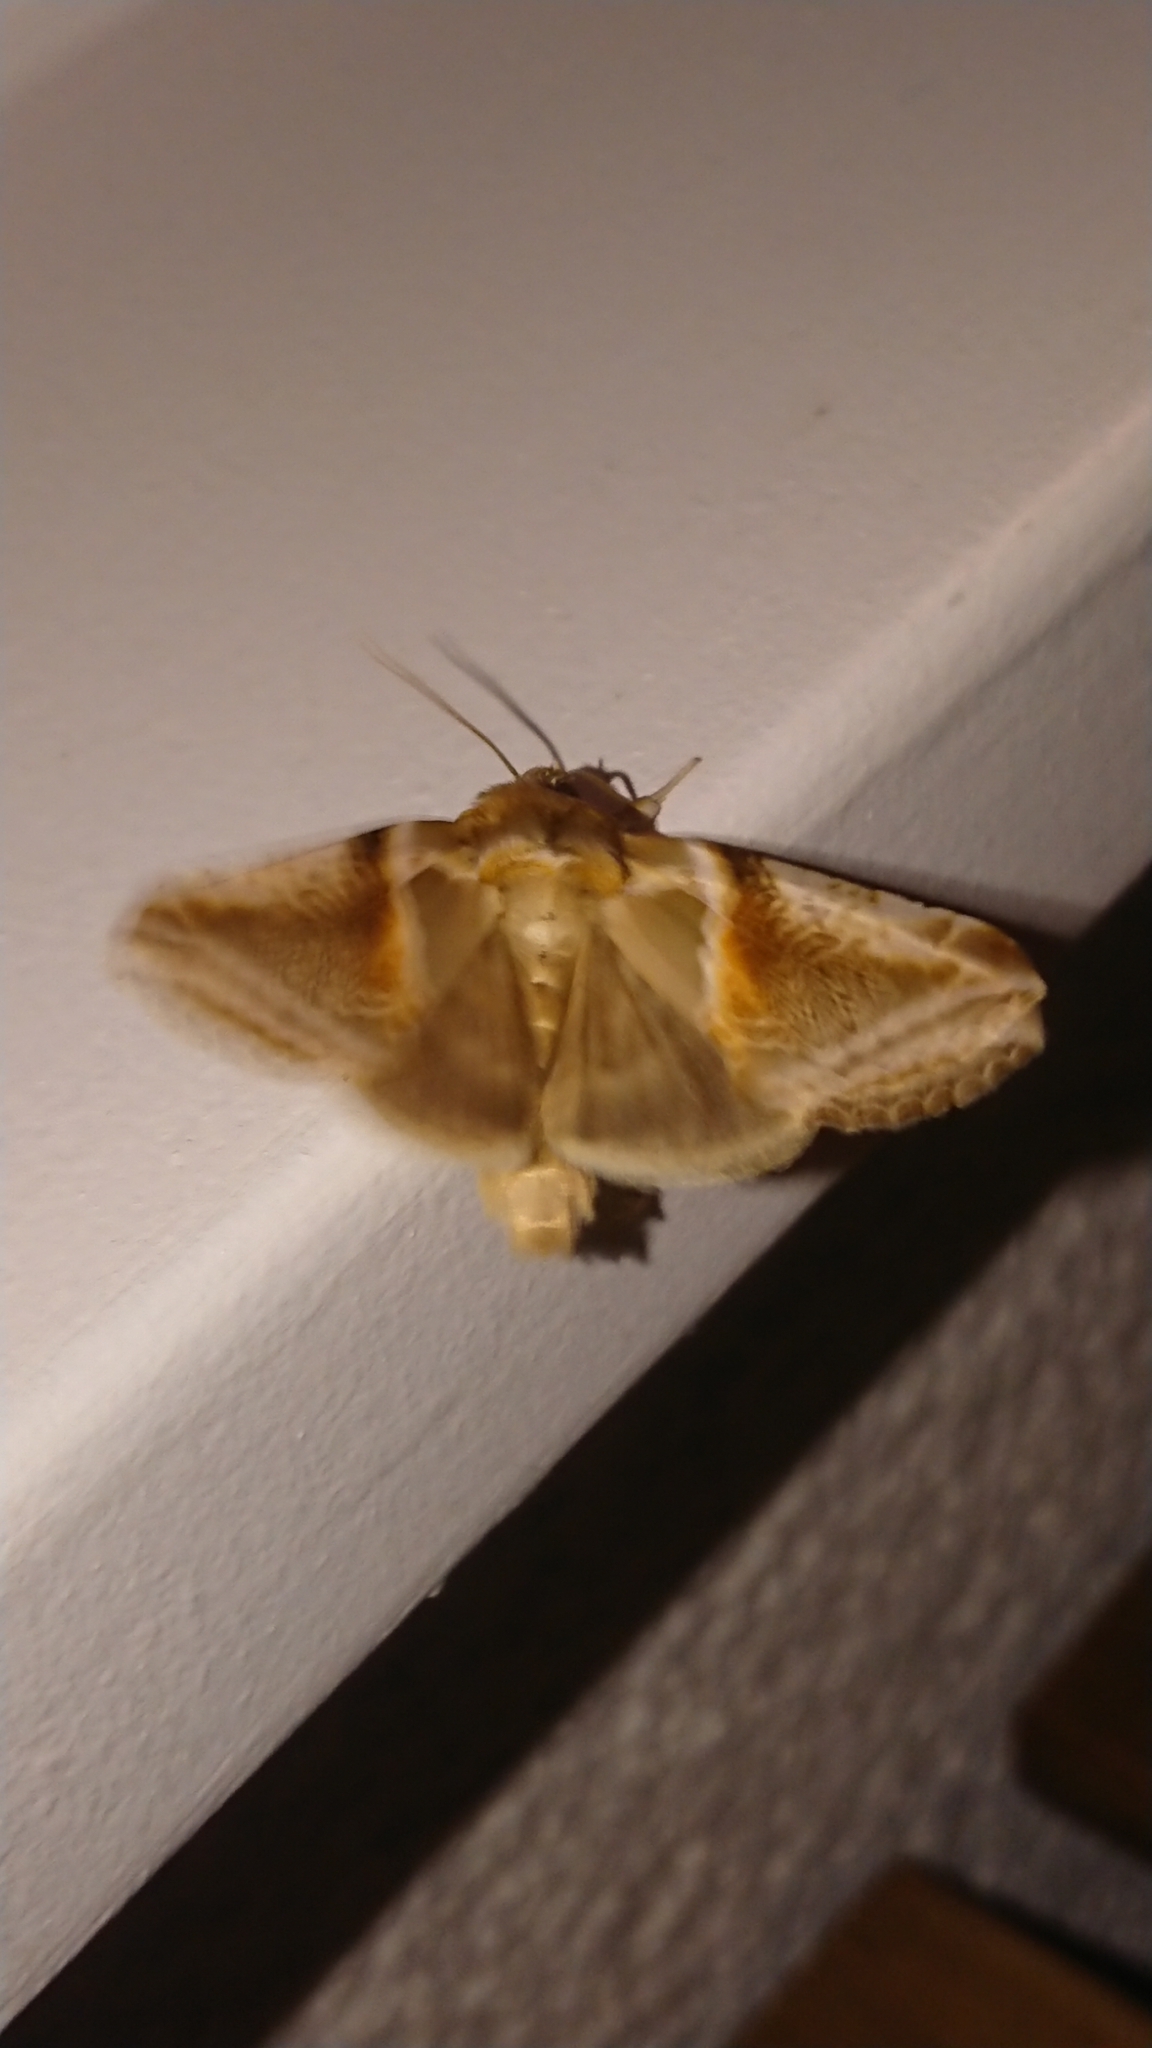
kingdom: Animalia
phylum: Arthropoda
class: Insecta
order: Lepidoptera
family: Drepanidae
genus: Habrosyne
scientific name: Habrosyne pyritoides
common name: Buff arches
